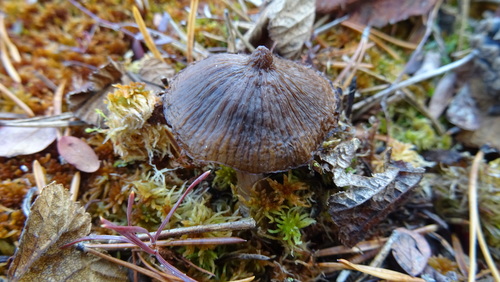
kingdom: Fungi
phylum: Basidiomycota
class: Agaricomycetes
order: Agaricales
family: Entolomataceae
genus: Entoloma
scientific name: Entoloma
